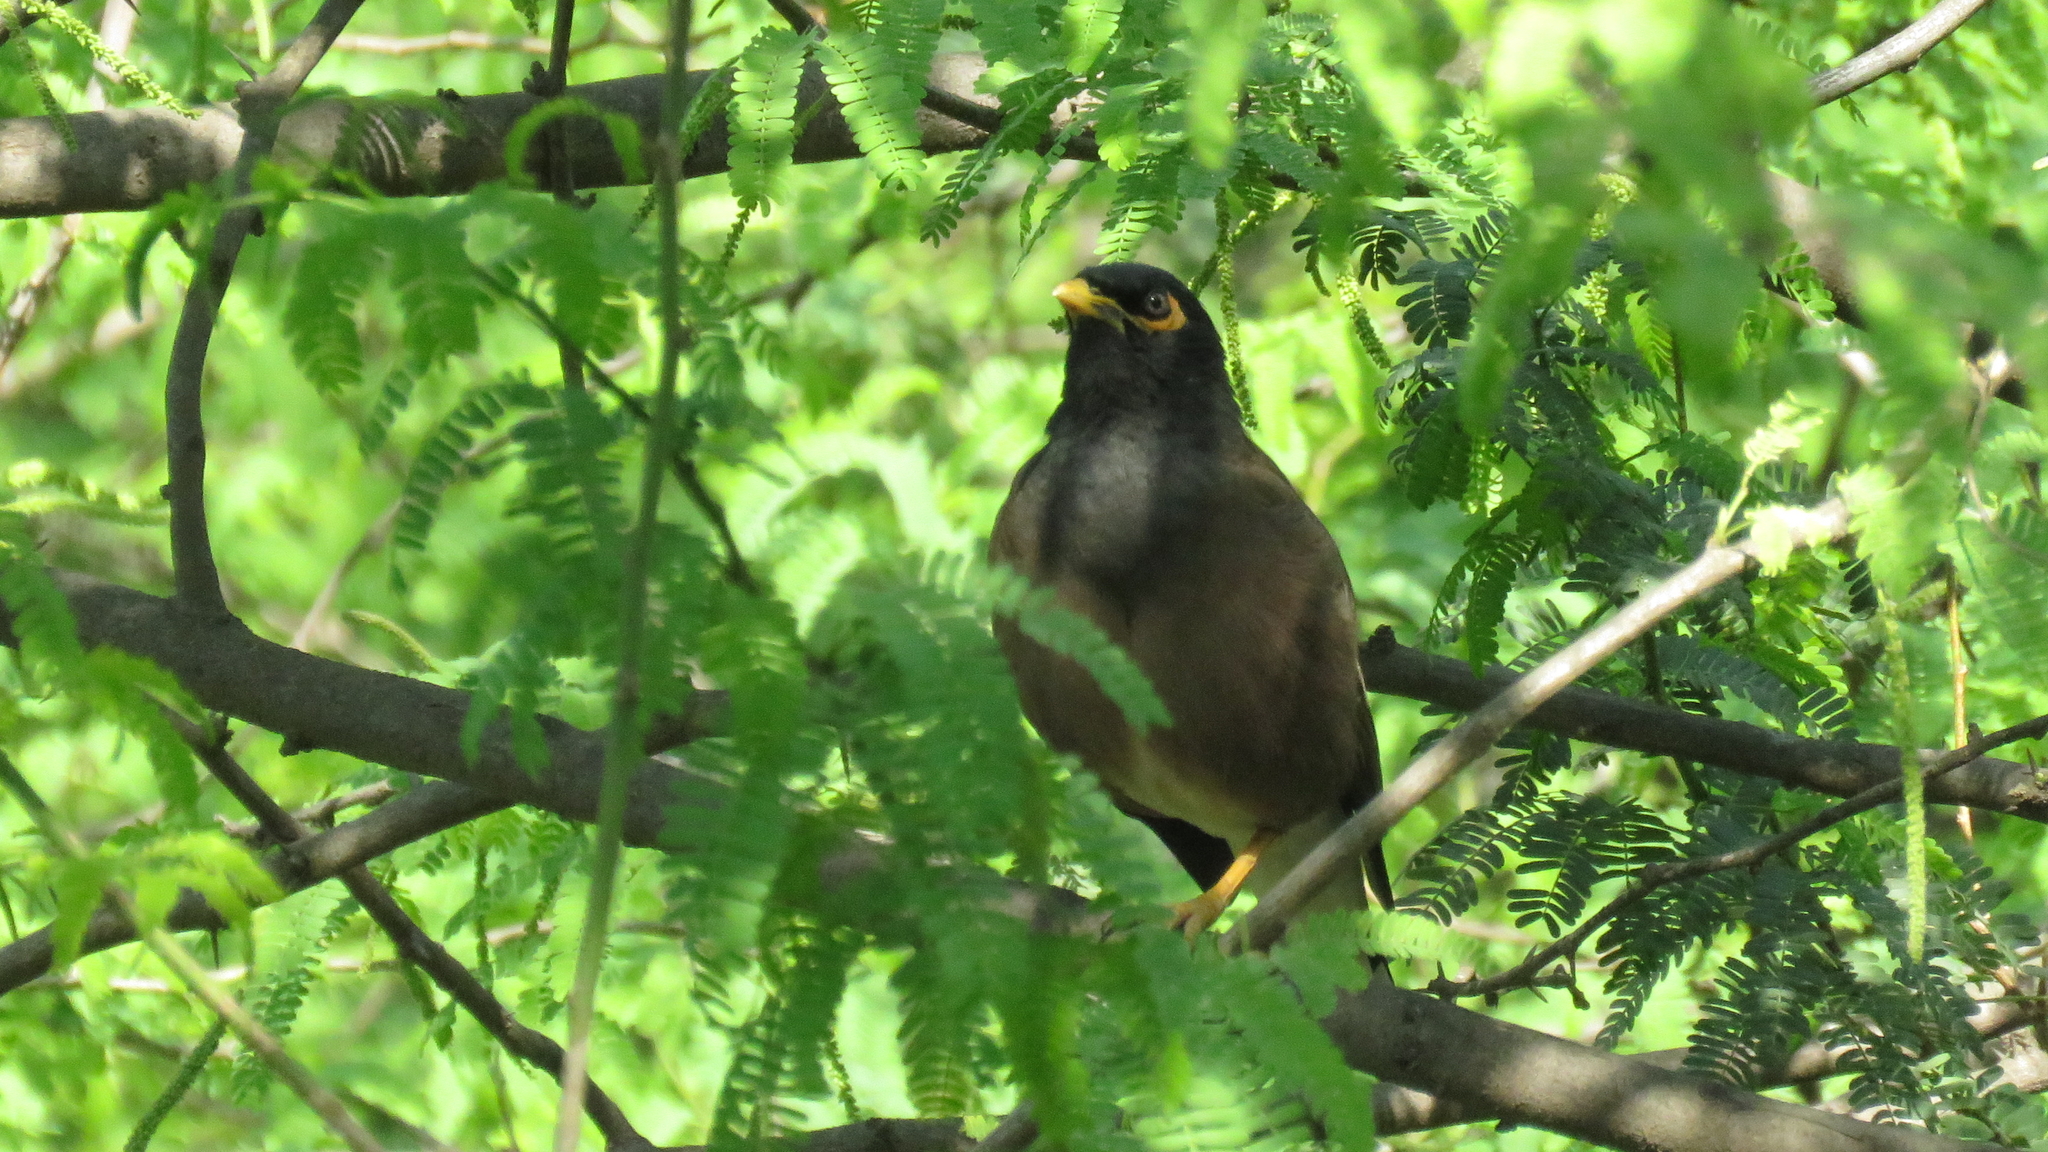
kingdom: Animalia
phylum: Chordata
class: Aves
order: Passeriformes
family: Sturnidae
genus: Acridotheres
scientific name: Acridotheres tristis
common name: Common myna
